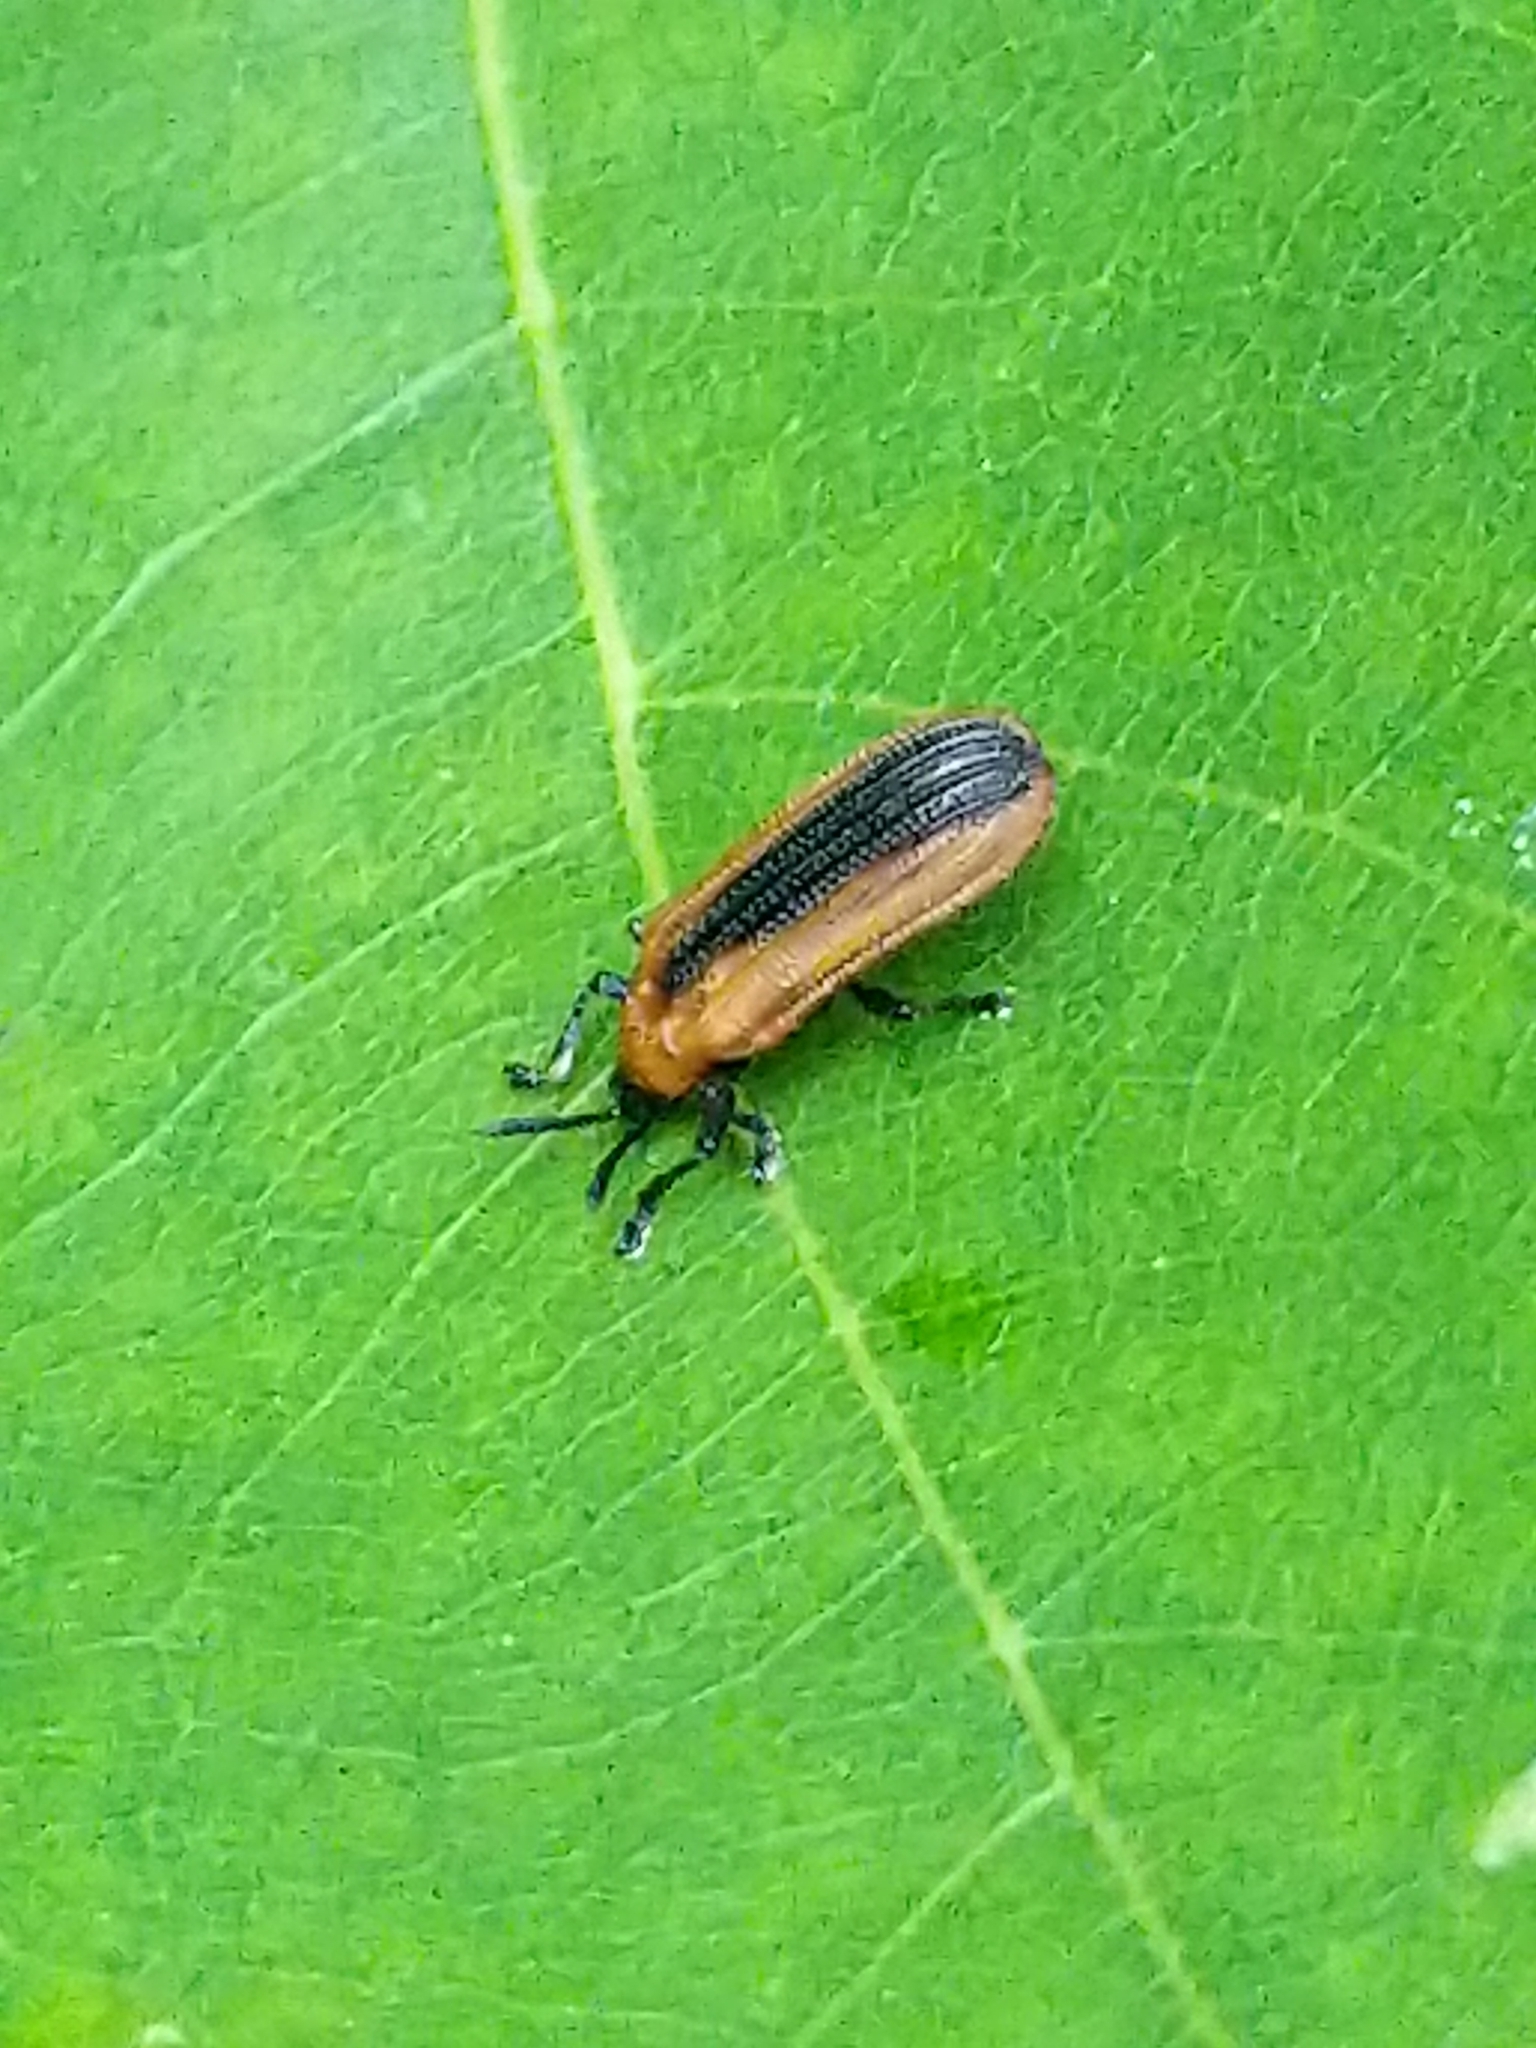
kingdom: Animalia
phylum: Arthropoda
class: Insecta
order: Coleoptera
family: Chrysomelidae
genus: Odontota
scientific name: Odontota dorsalis
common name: Locust leaf-miner beetle
